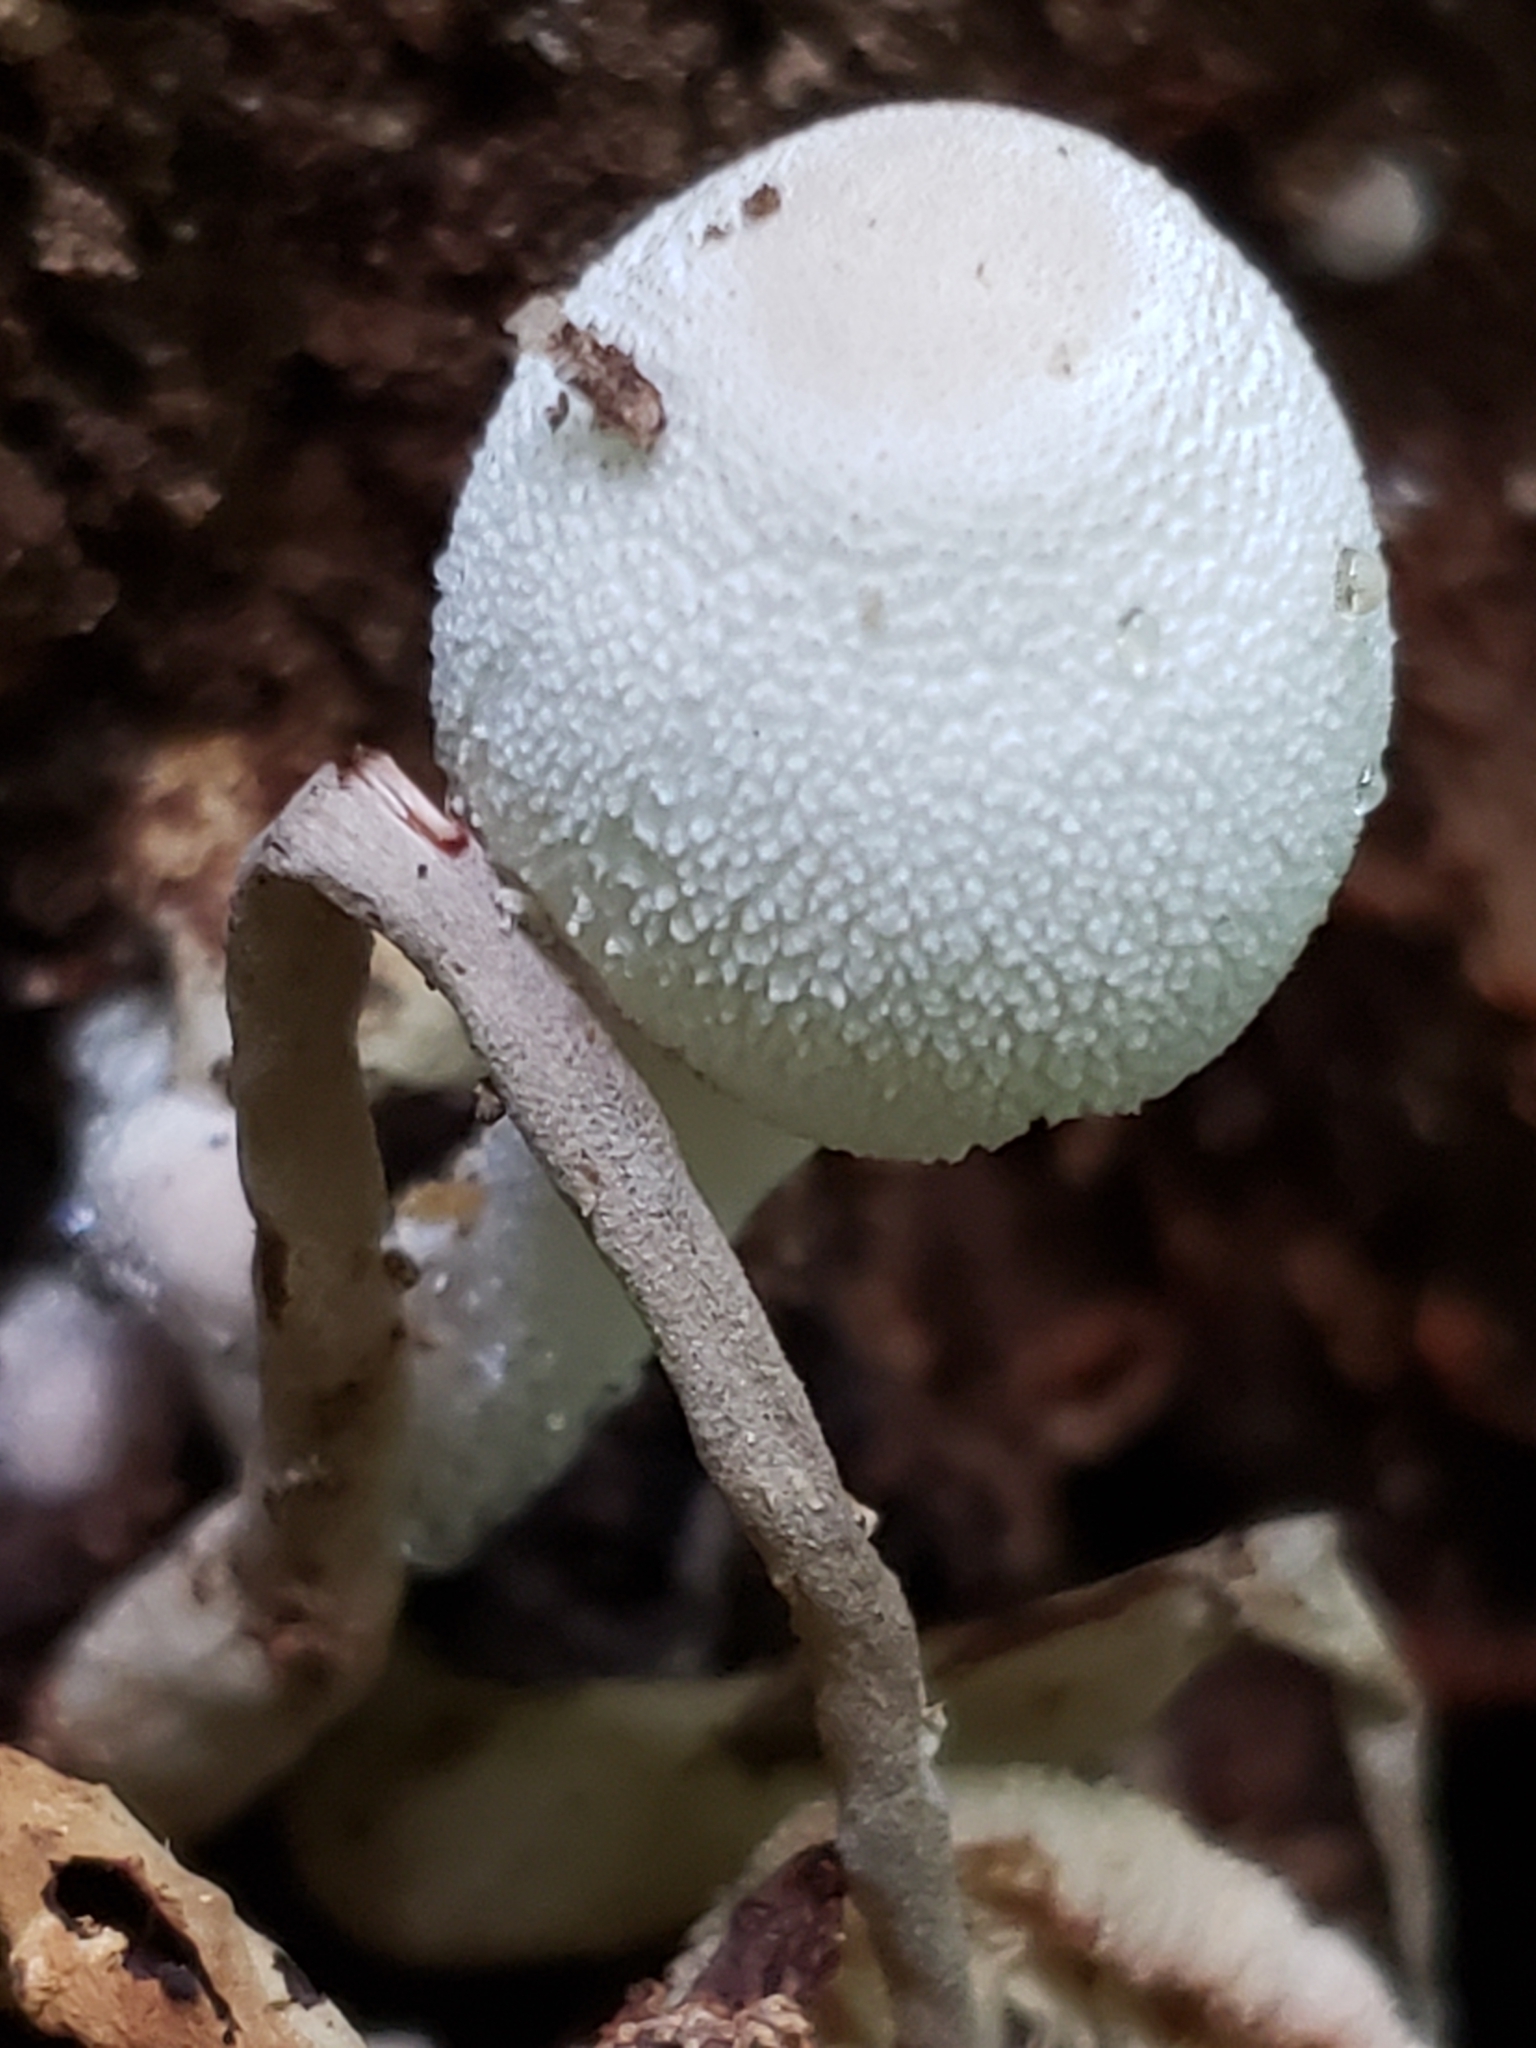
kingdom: Fungi
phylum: Basidiomycota
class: Agaricomycetes
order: Agaricales
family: Agaricaceae
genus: Leucocoprinus
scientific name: Leucocoprinus cepistipes
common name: Onion-stalk parasol
